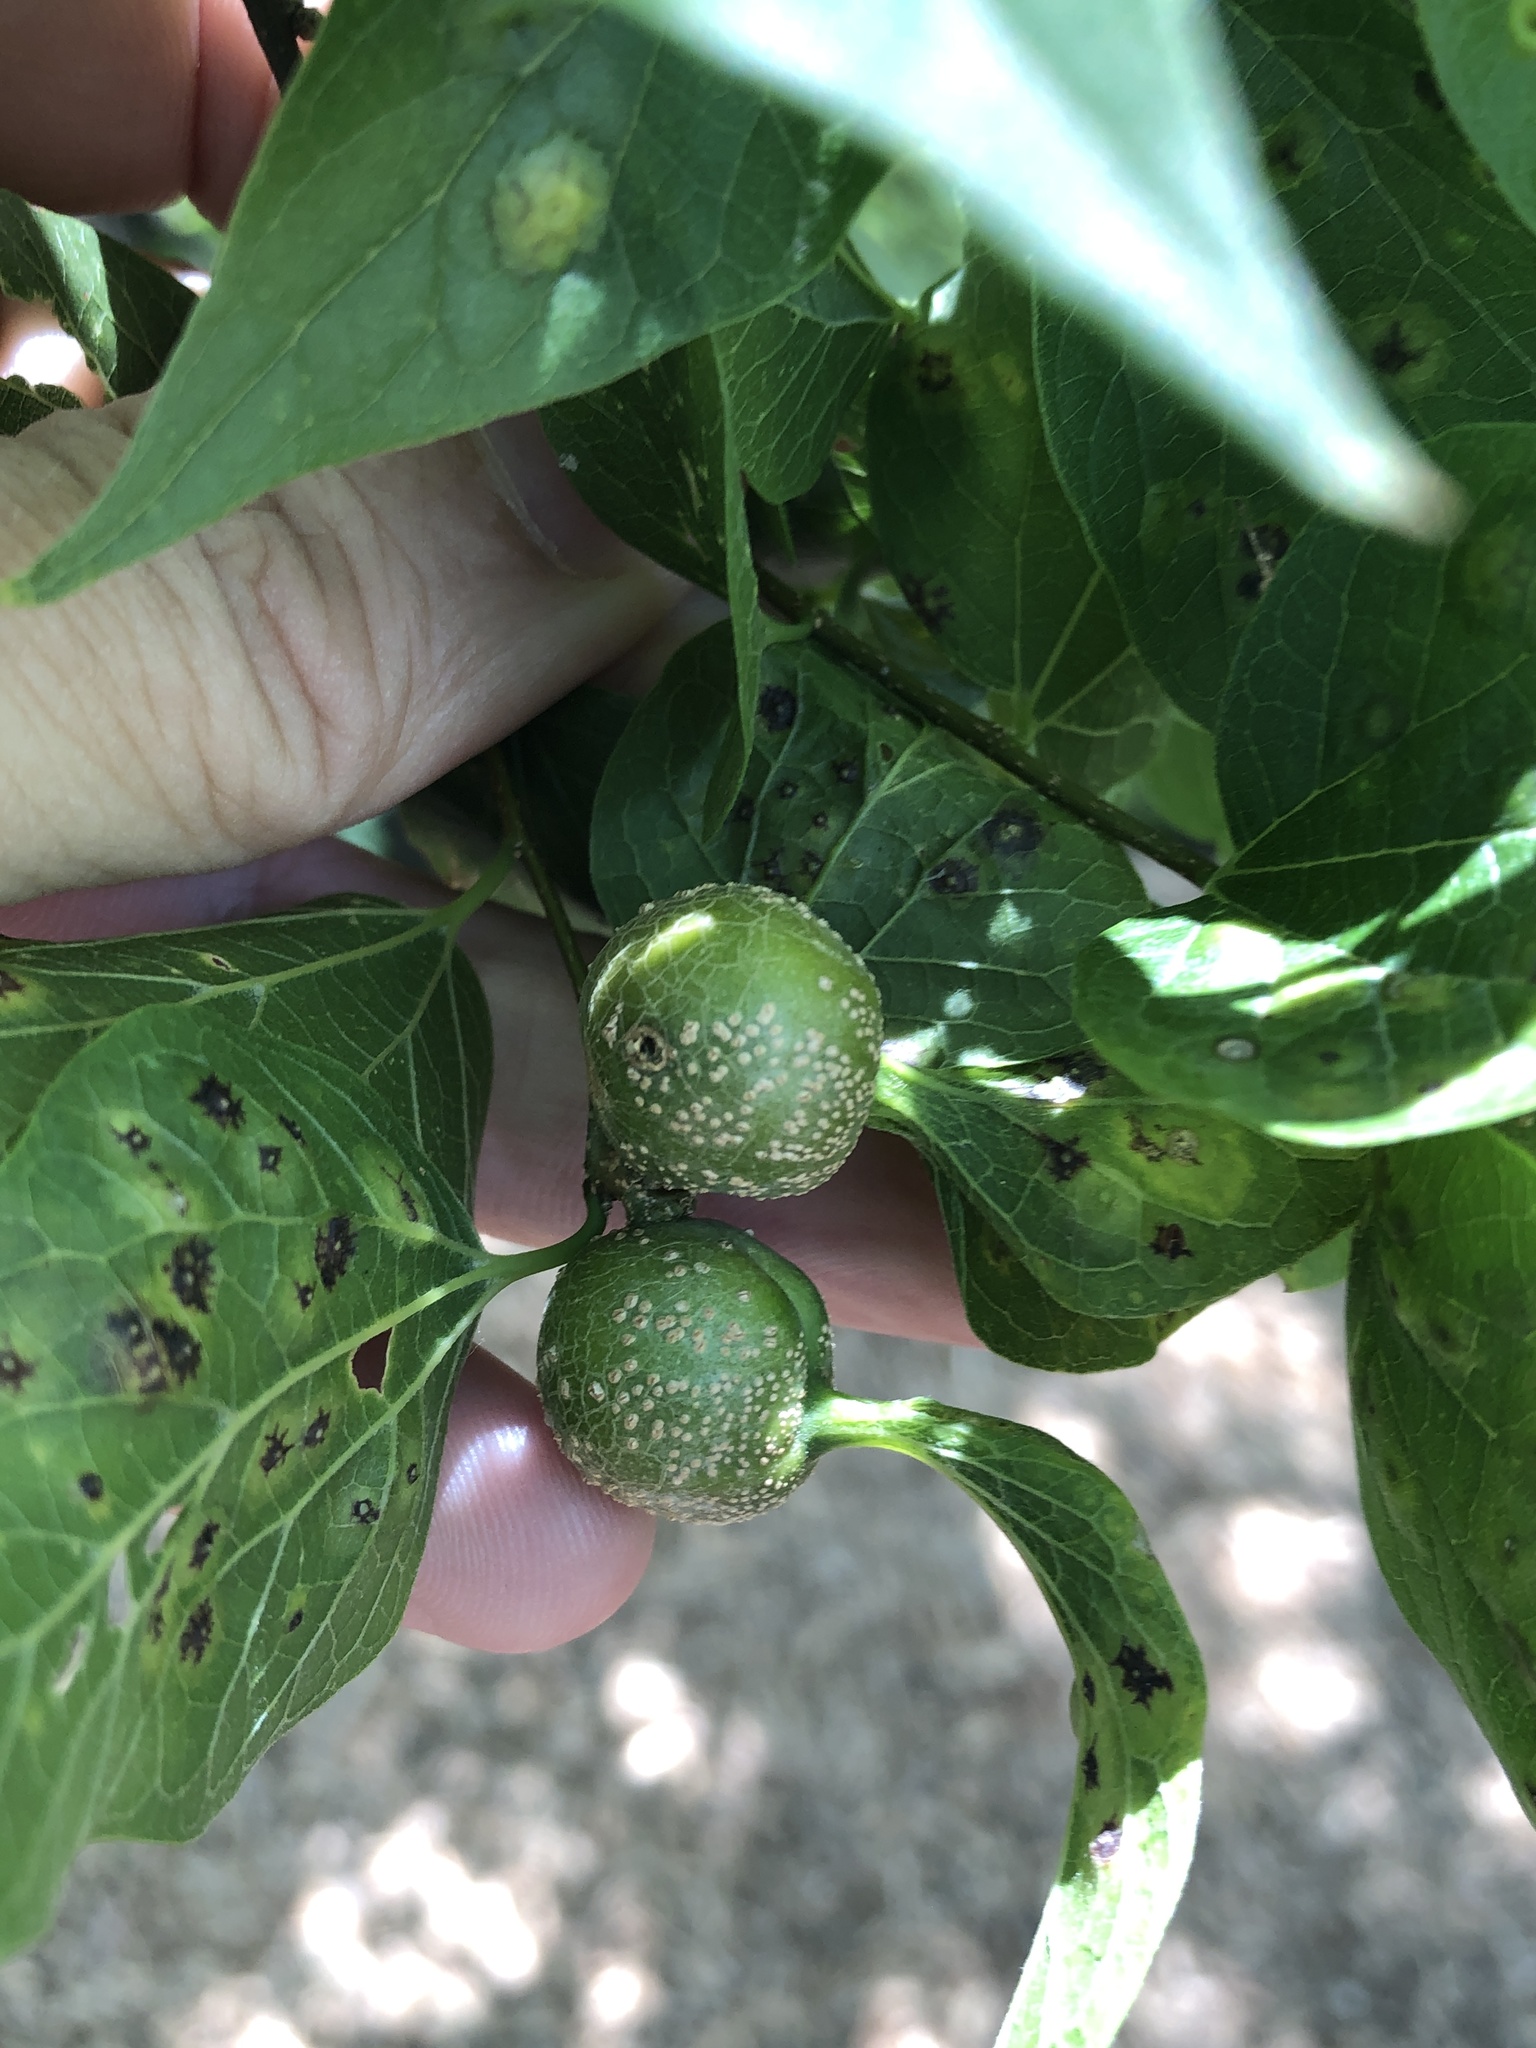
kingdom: Animalia
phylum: Arthropoda
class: Insecta
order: Hemiptera
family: Aphalaridae
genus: Pachypsylla
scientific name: Pachypsylla venusta
